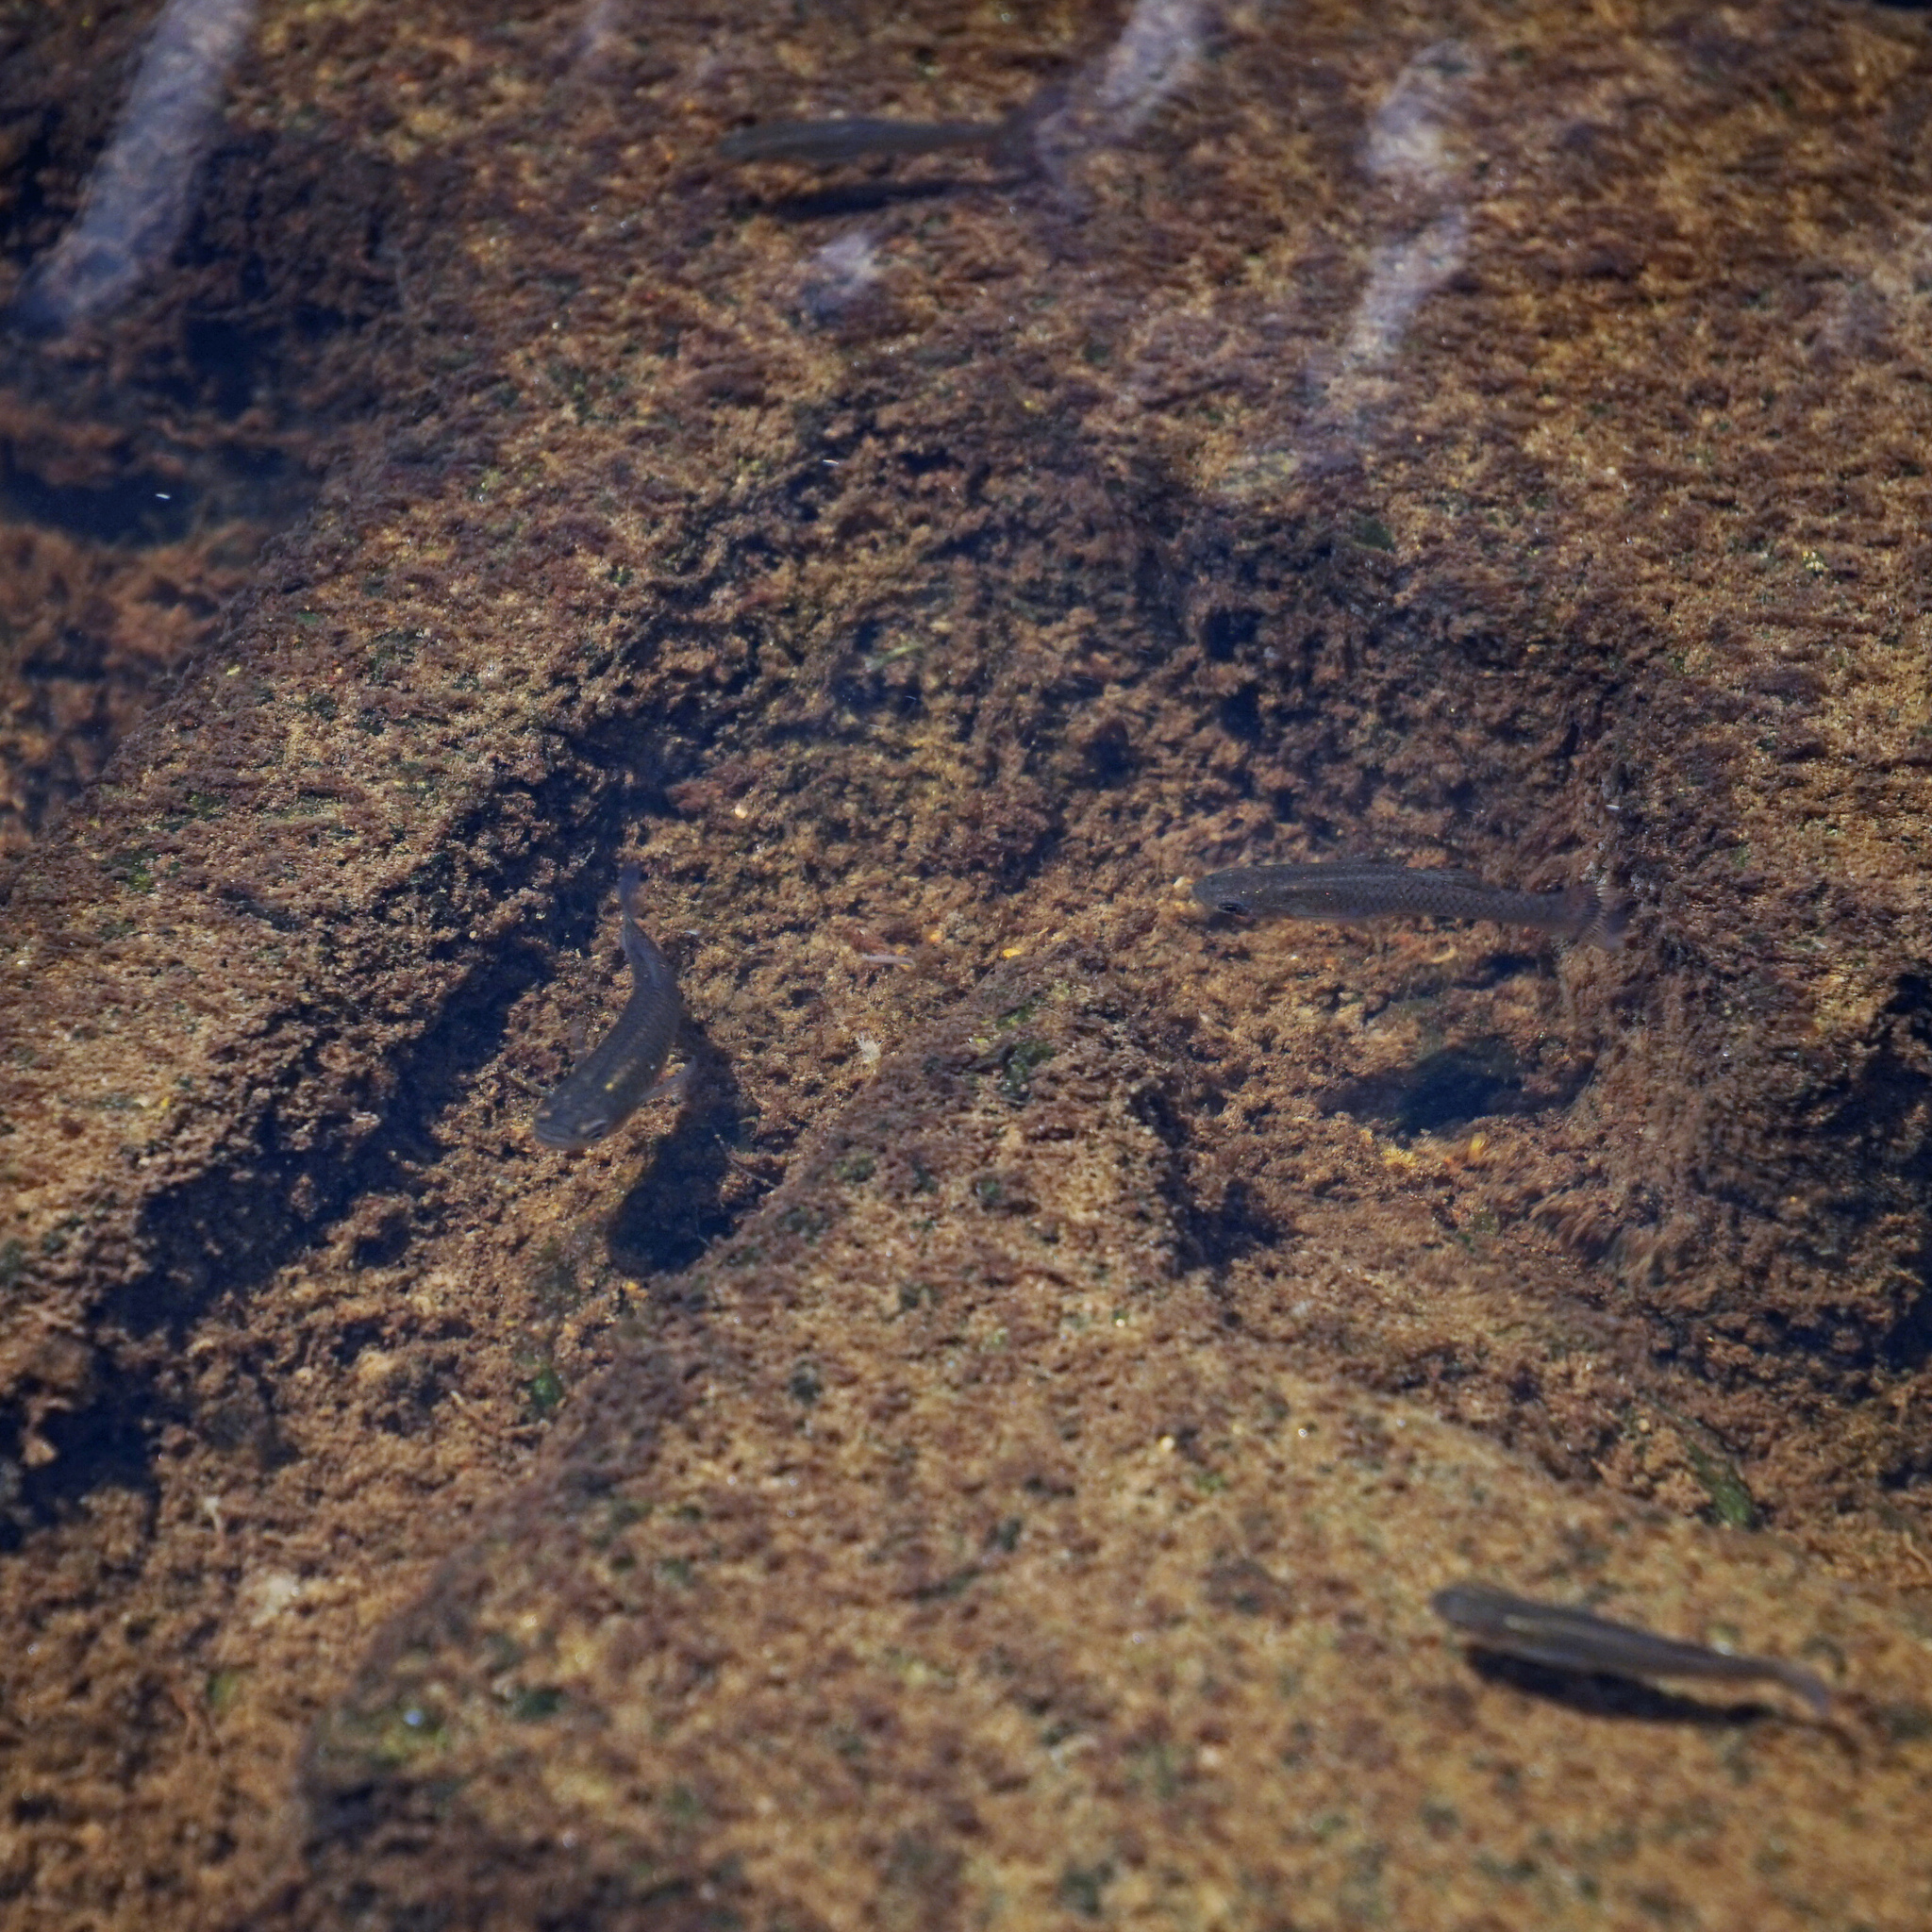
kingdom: Animalia
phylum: Chordata
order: Cyprinodontiformes
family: Poeciliidae
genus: Gambusia
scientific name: Gambusia holbrooki
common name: Eastern mosquitofish
